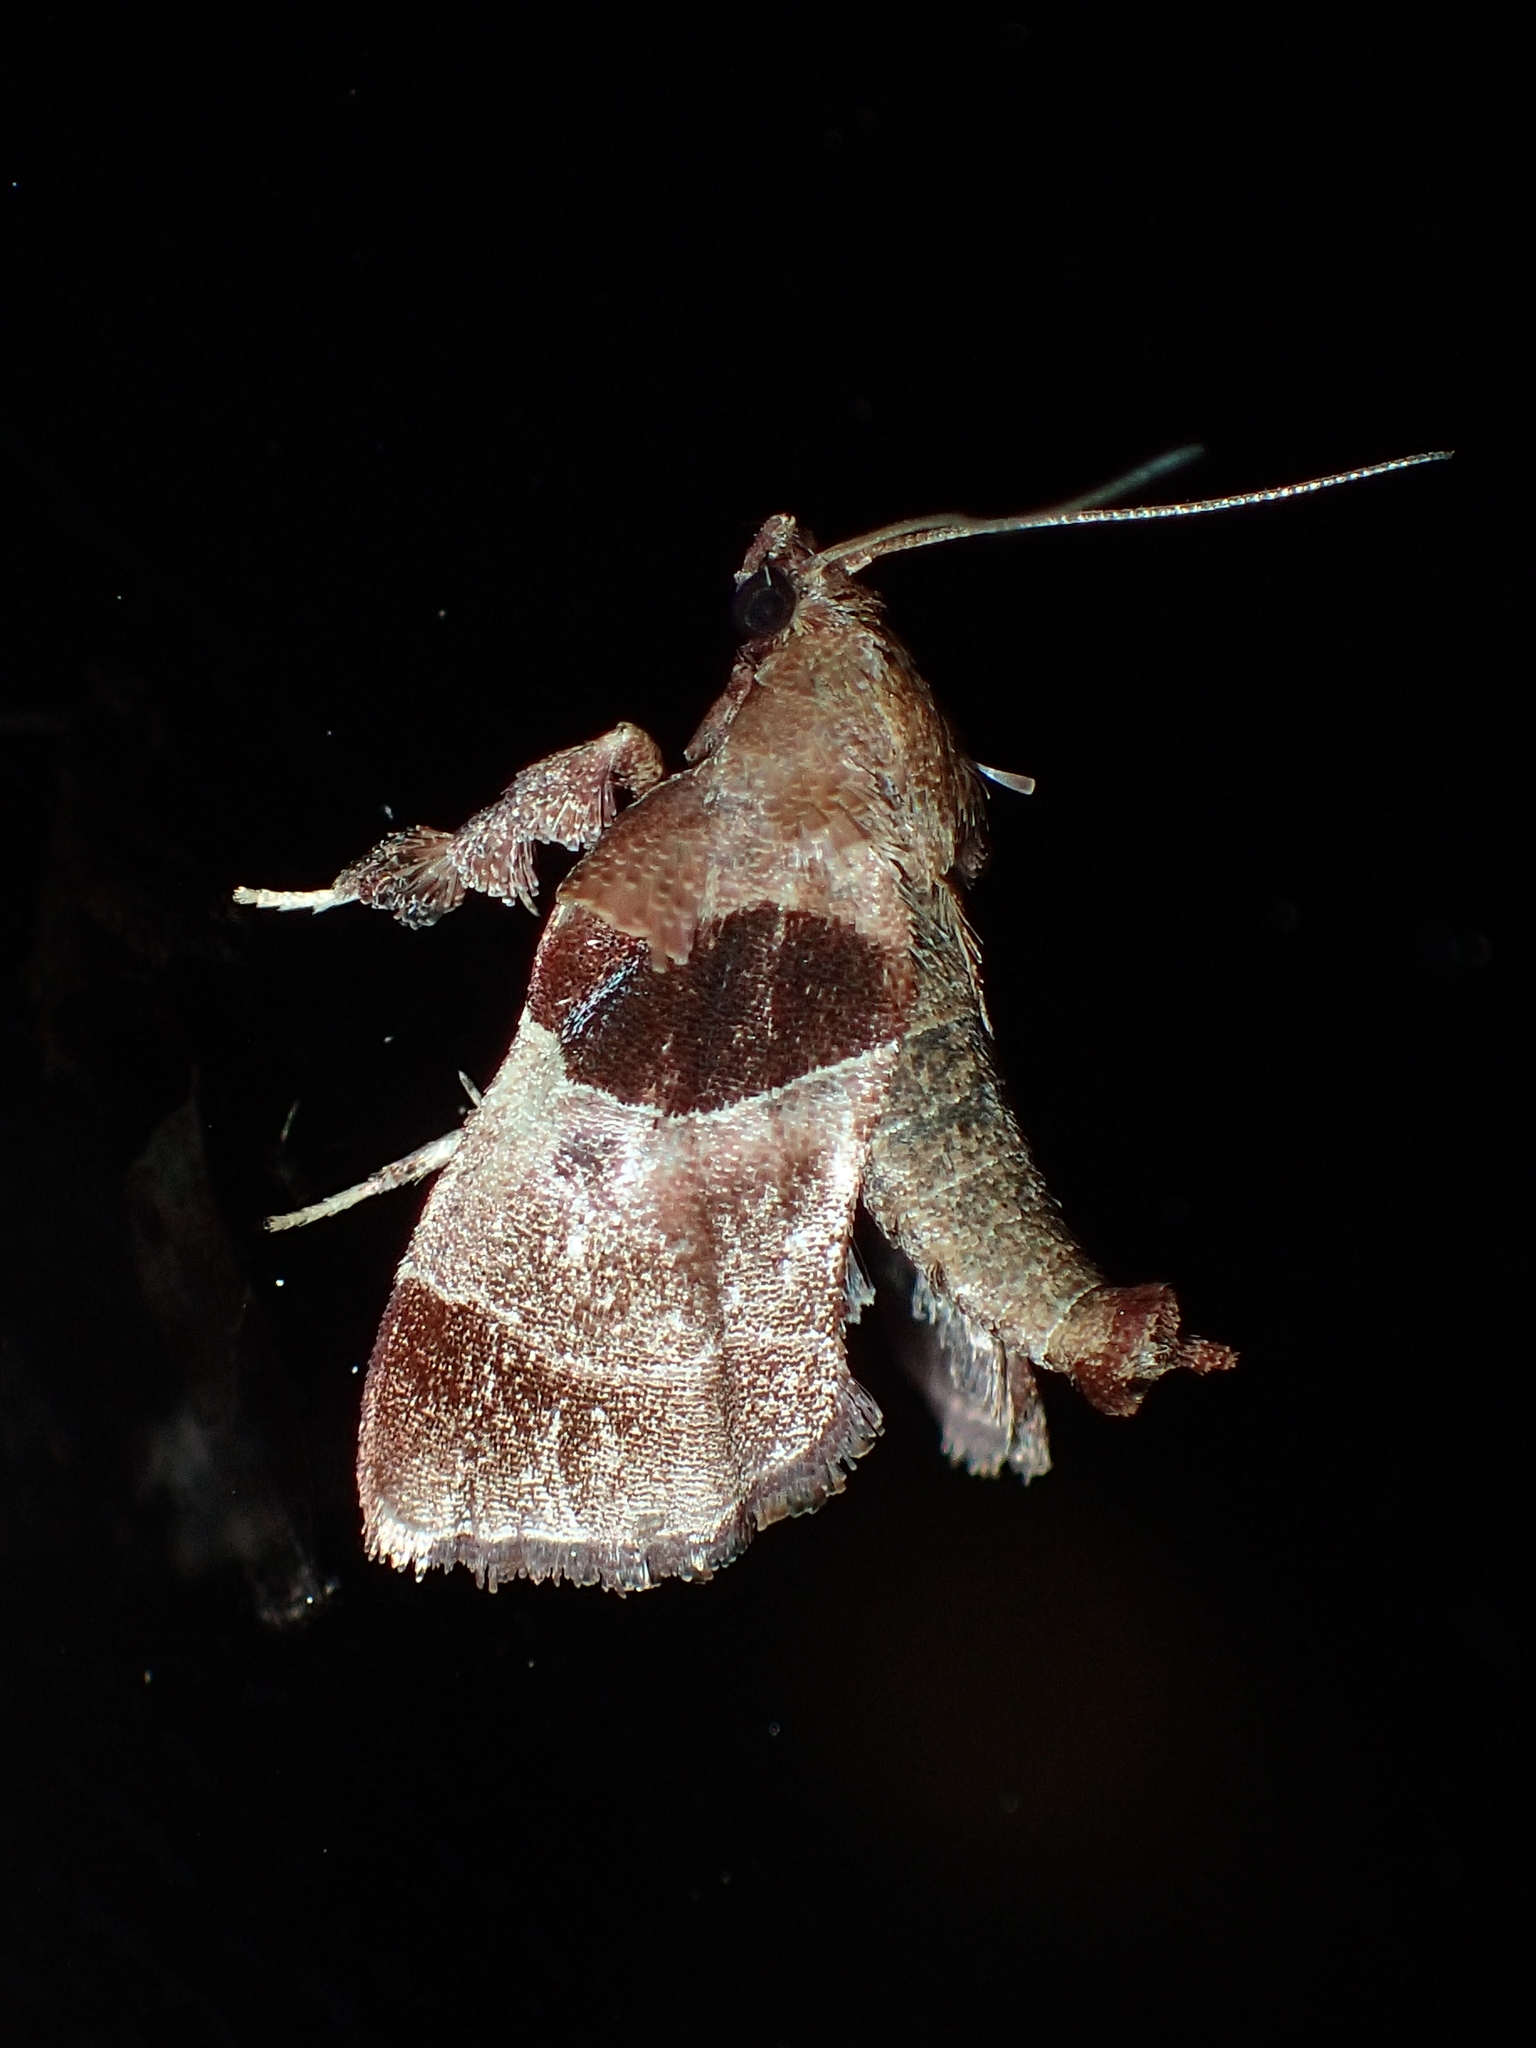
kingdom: Animalia
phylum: Arthropoda
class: Insecta
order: Lepidoptera
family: Pyralidae
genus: Tosale
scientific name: Tosale oviplagalis
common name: Dimorphic tosale moth
